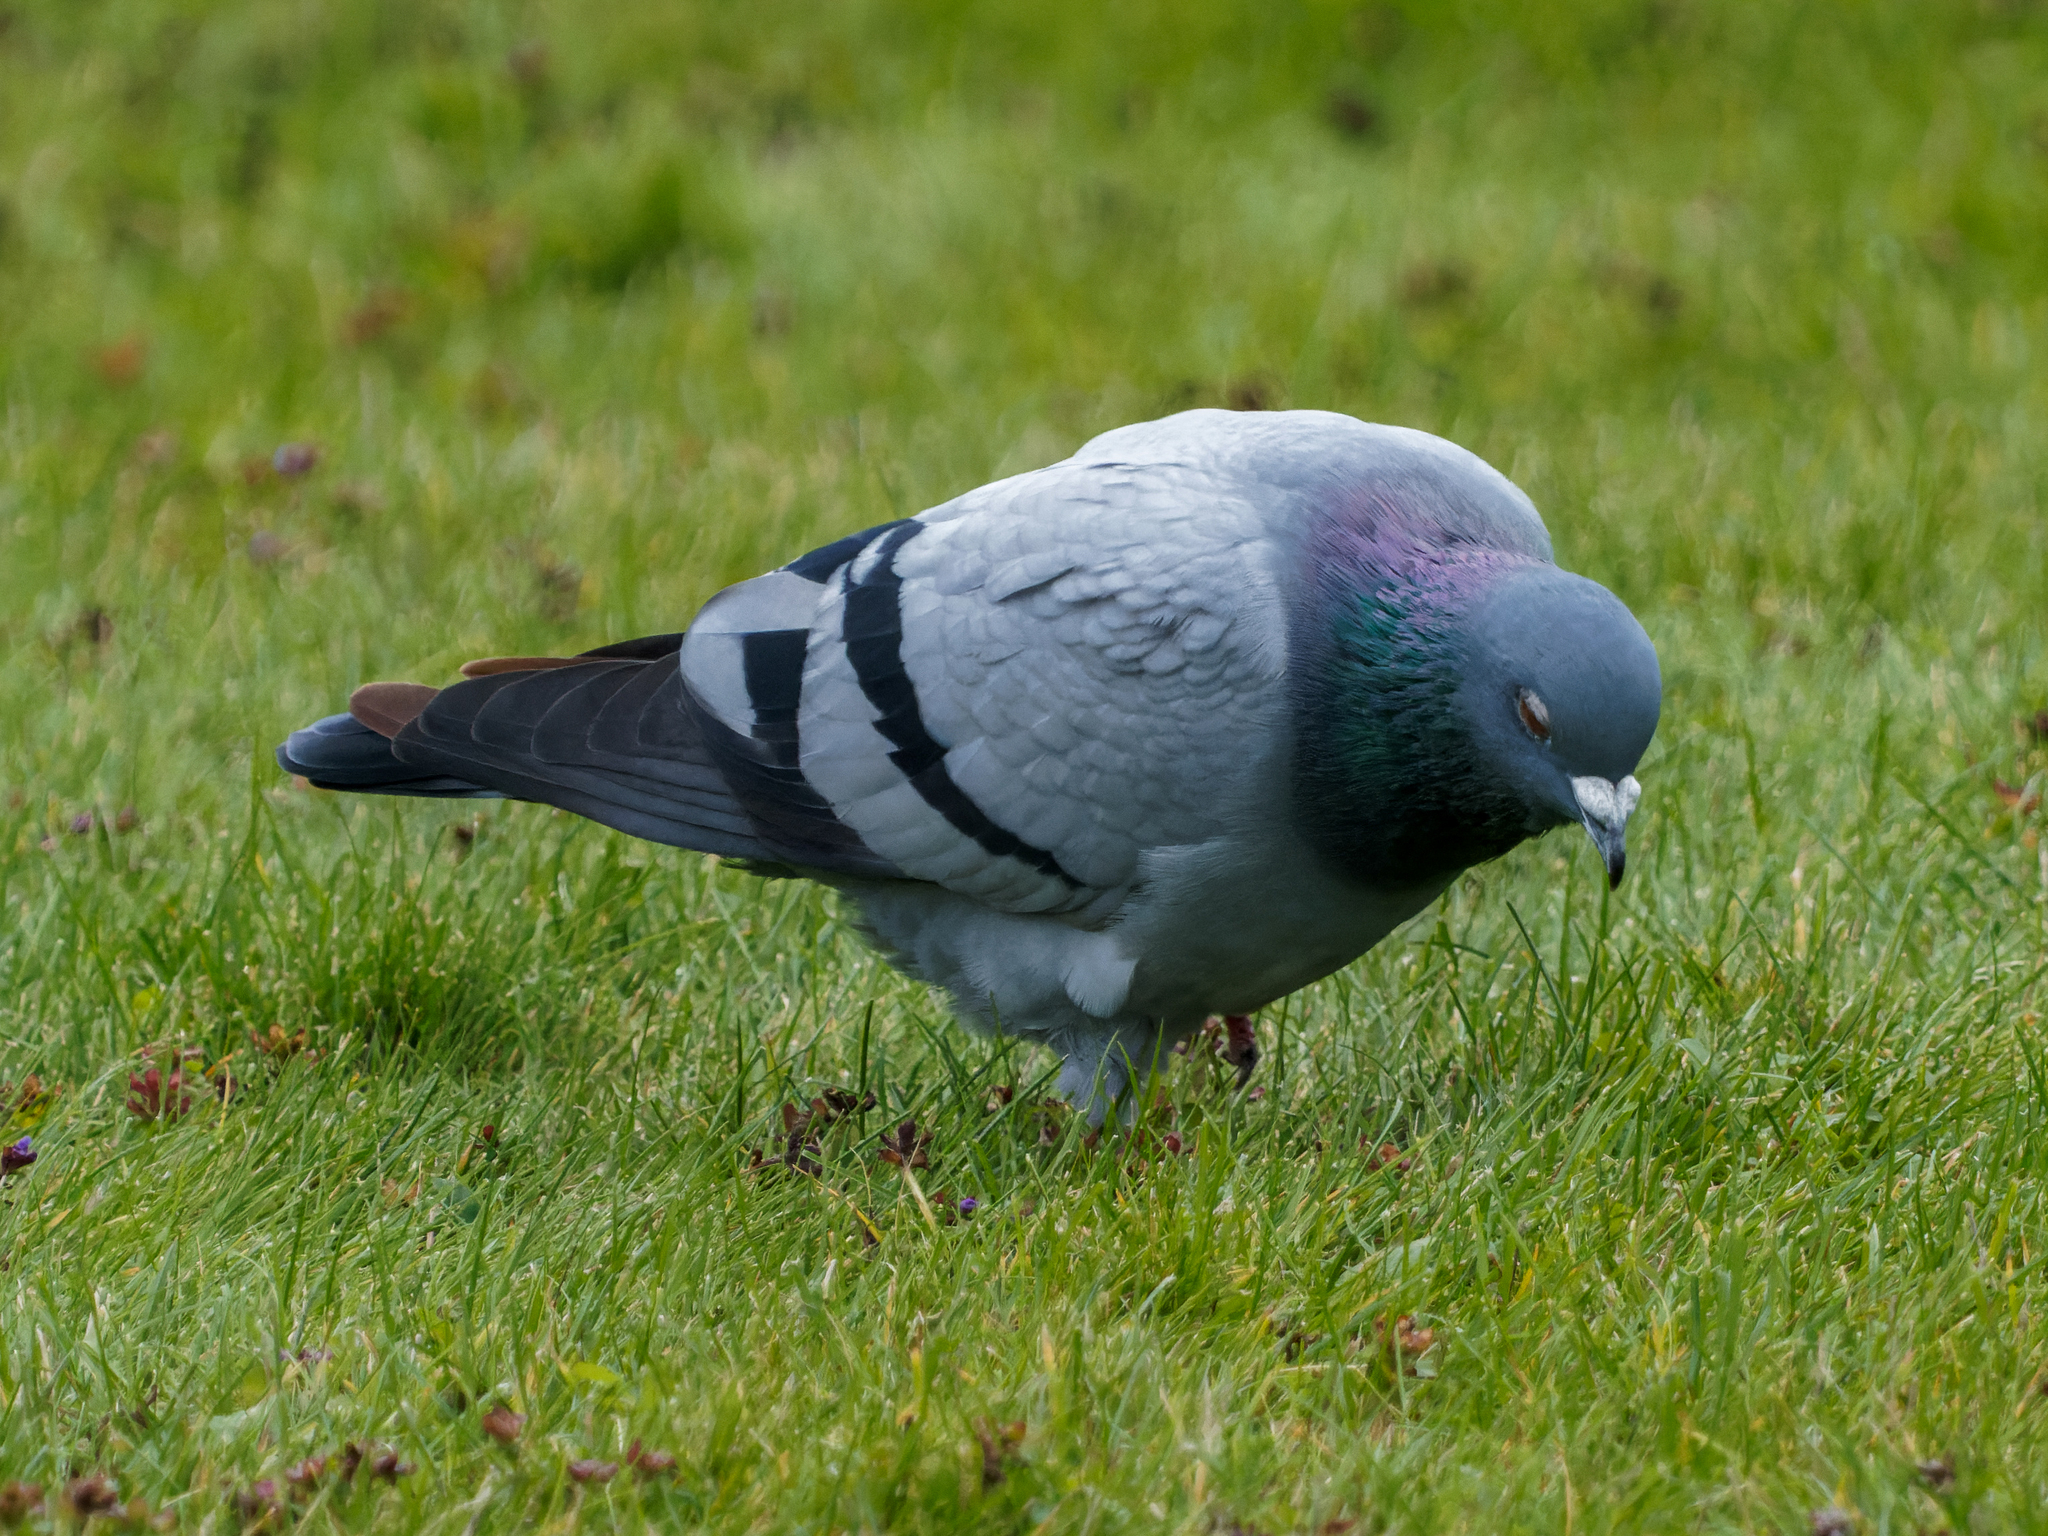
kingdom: Animalia
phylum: Chordata
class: Aves
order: Columbiformes
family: Columbidae
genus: Columba
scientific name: Columba livia
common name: Rock pigeon
